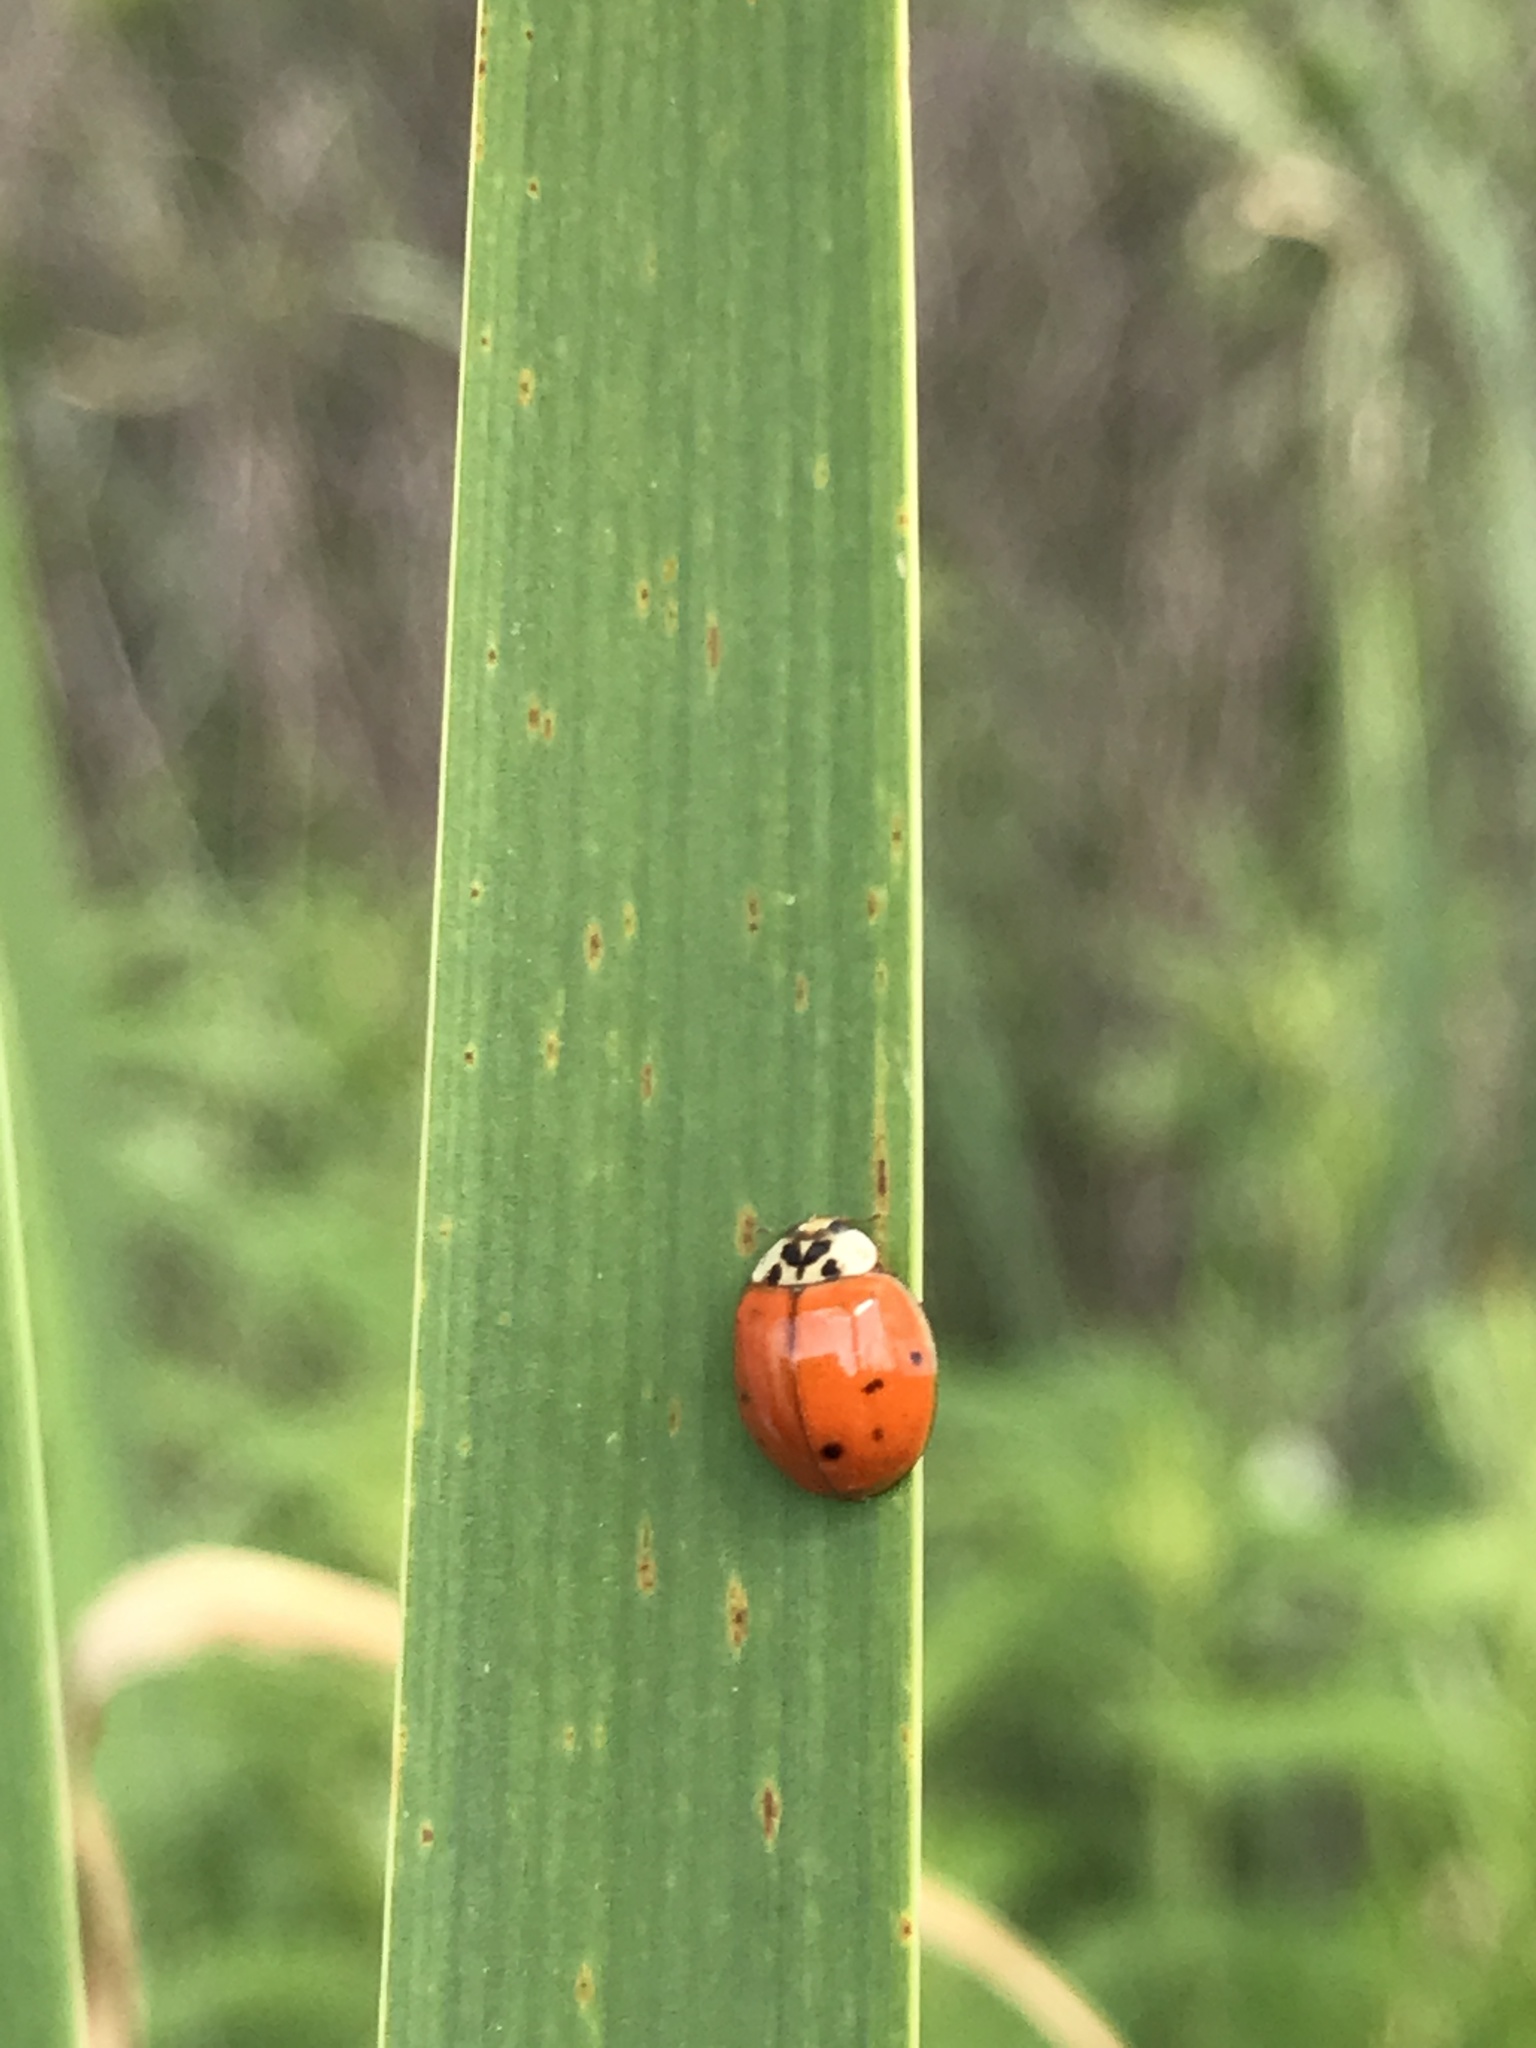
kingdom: Animalia
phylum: Arthropoda
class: Insecta
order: Coleoptera
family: Coccinellidae
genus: Harmonia
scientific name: Harmonia axyridis
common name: Harlequin ladybird
